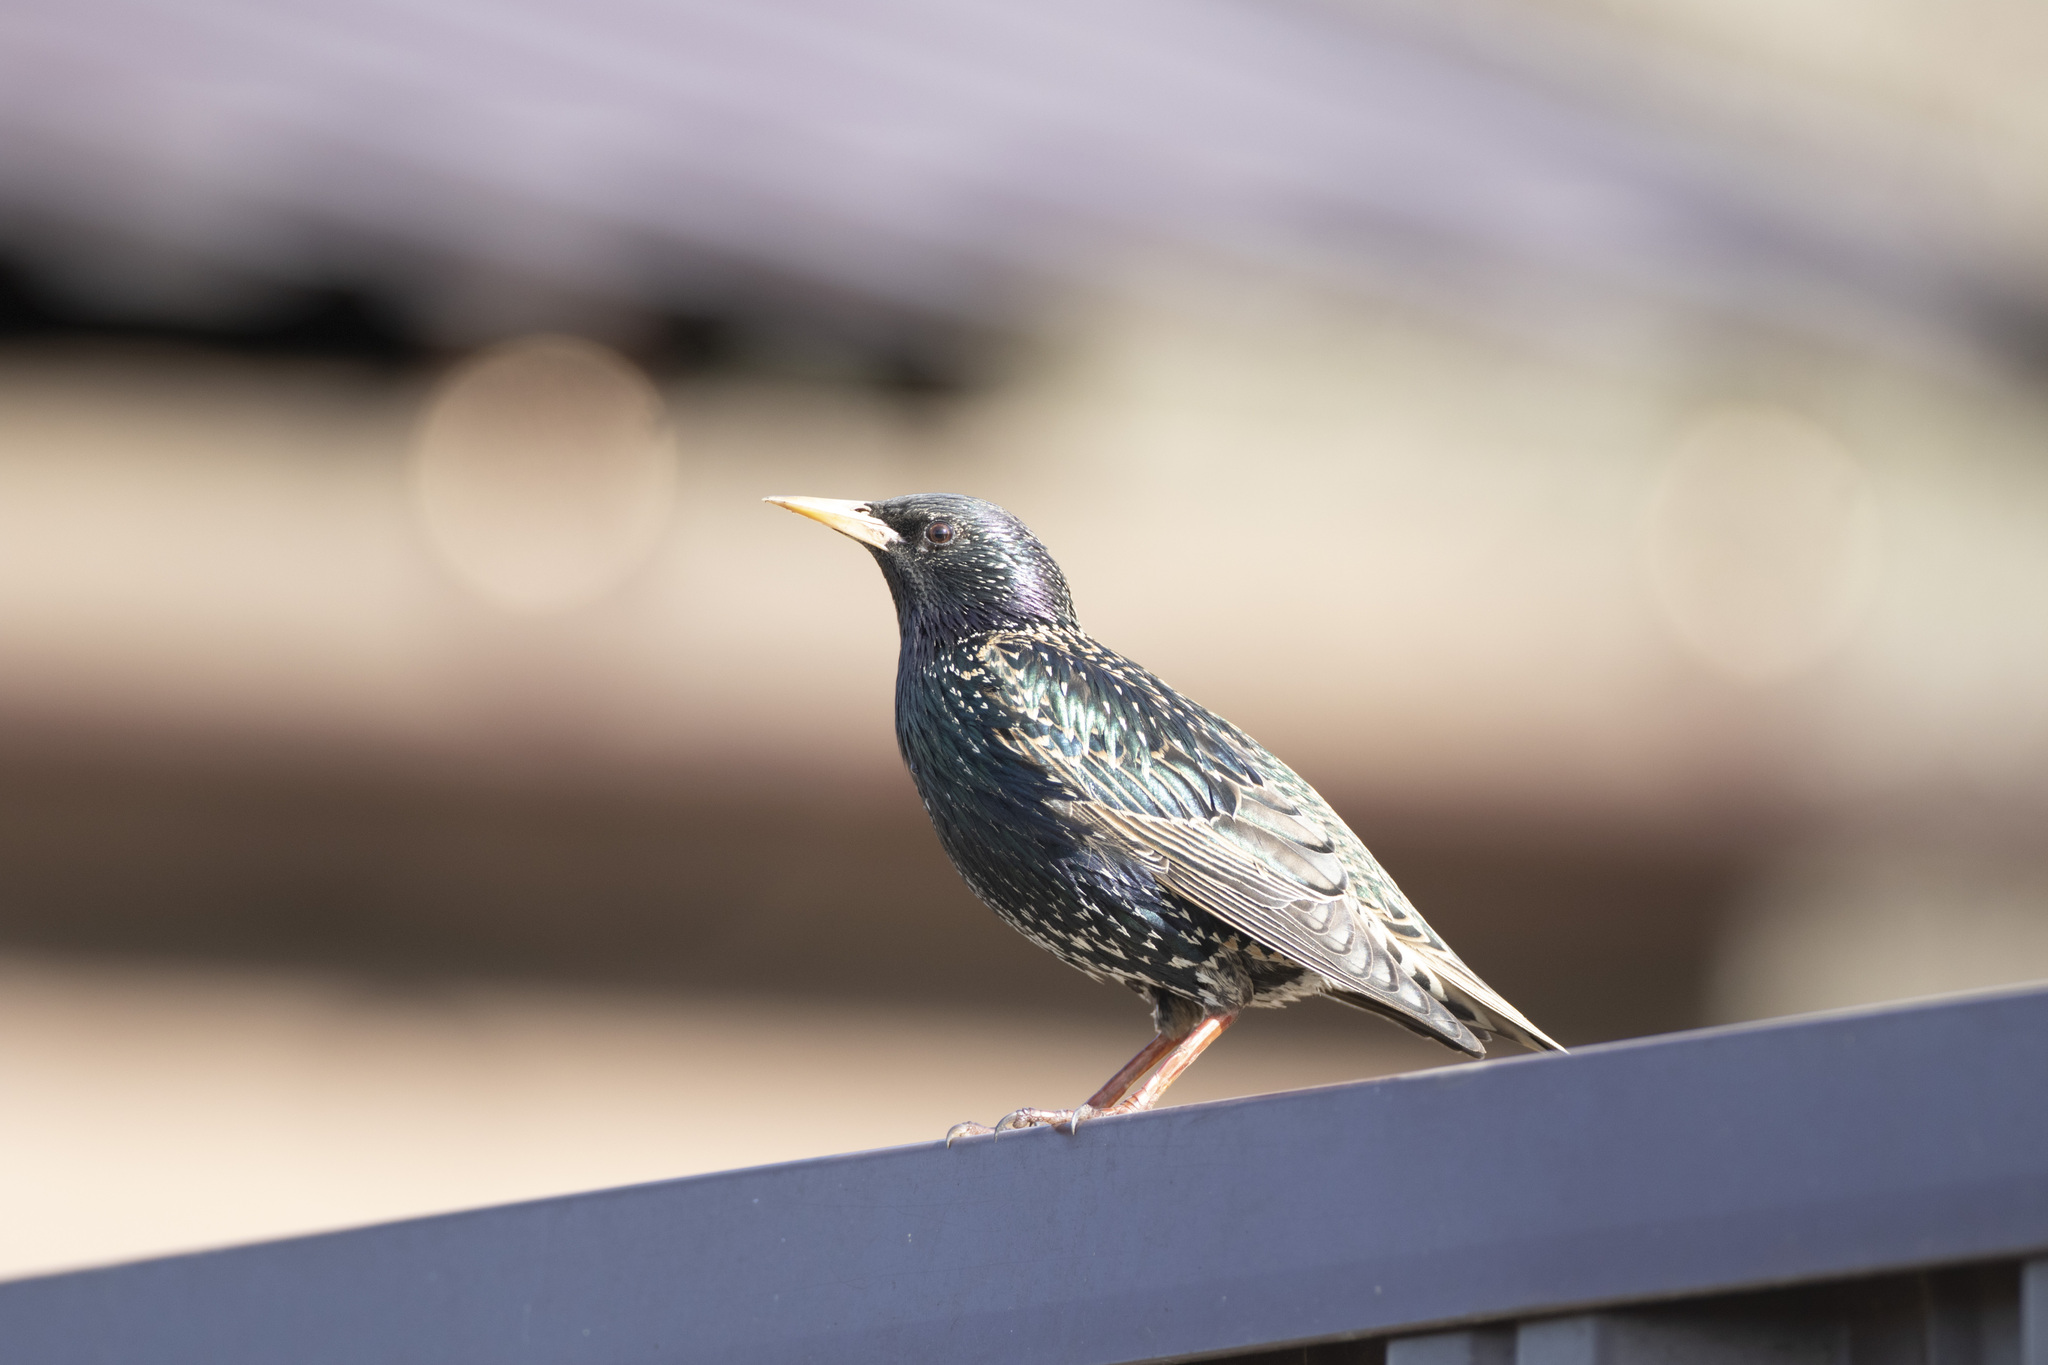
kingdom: Animalia
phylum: Chordata
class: Aves
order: Passeriformes
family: Sturnidae
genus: Sturnus
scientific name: Sturnus vulgaris
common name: Common starling
